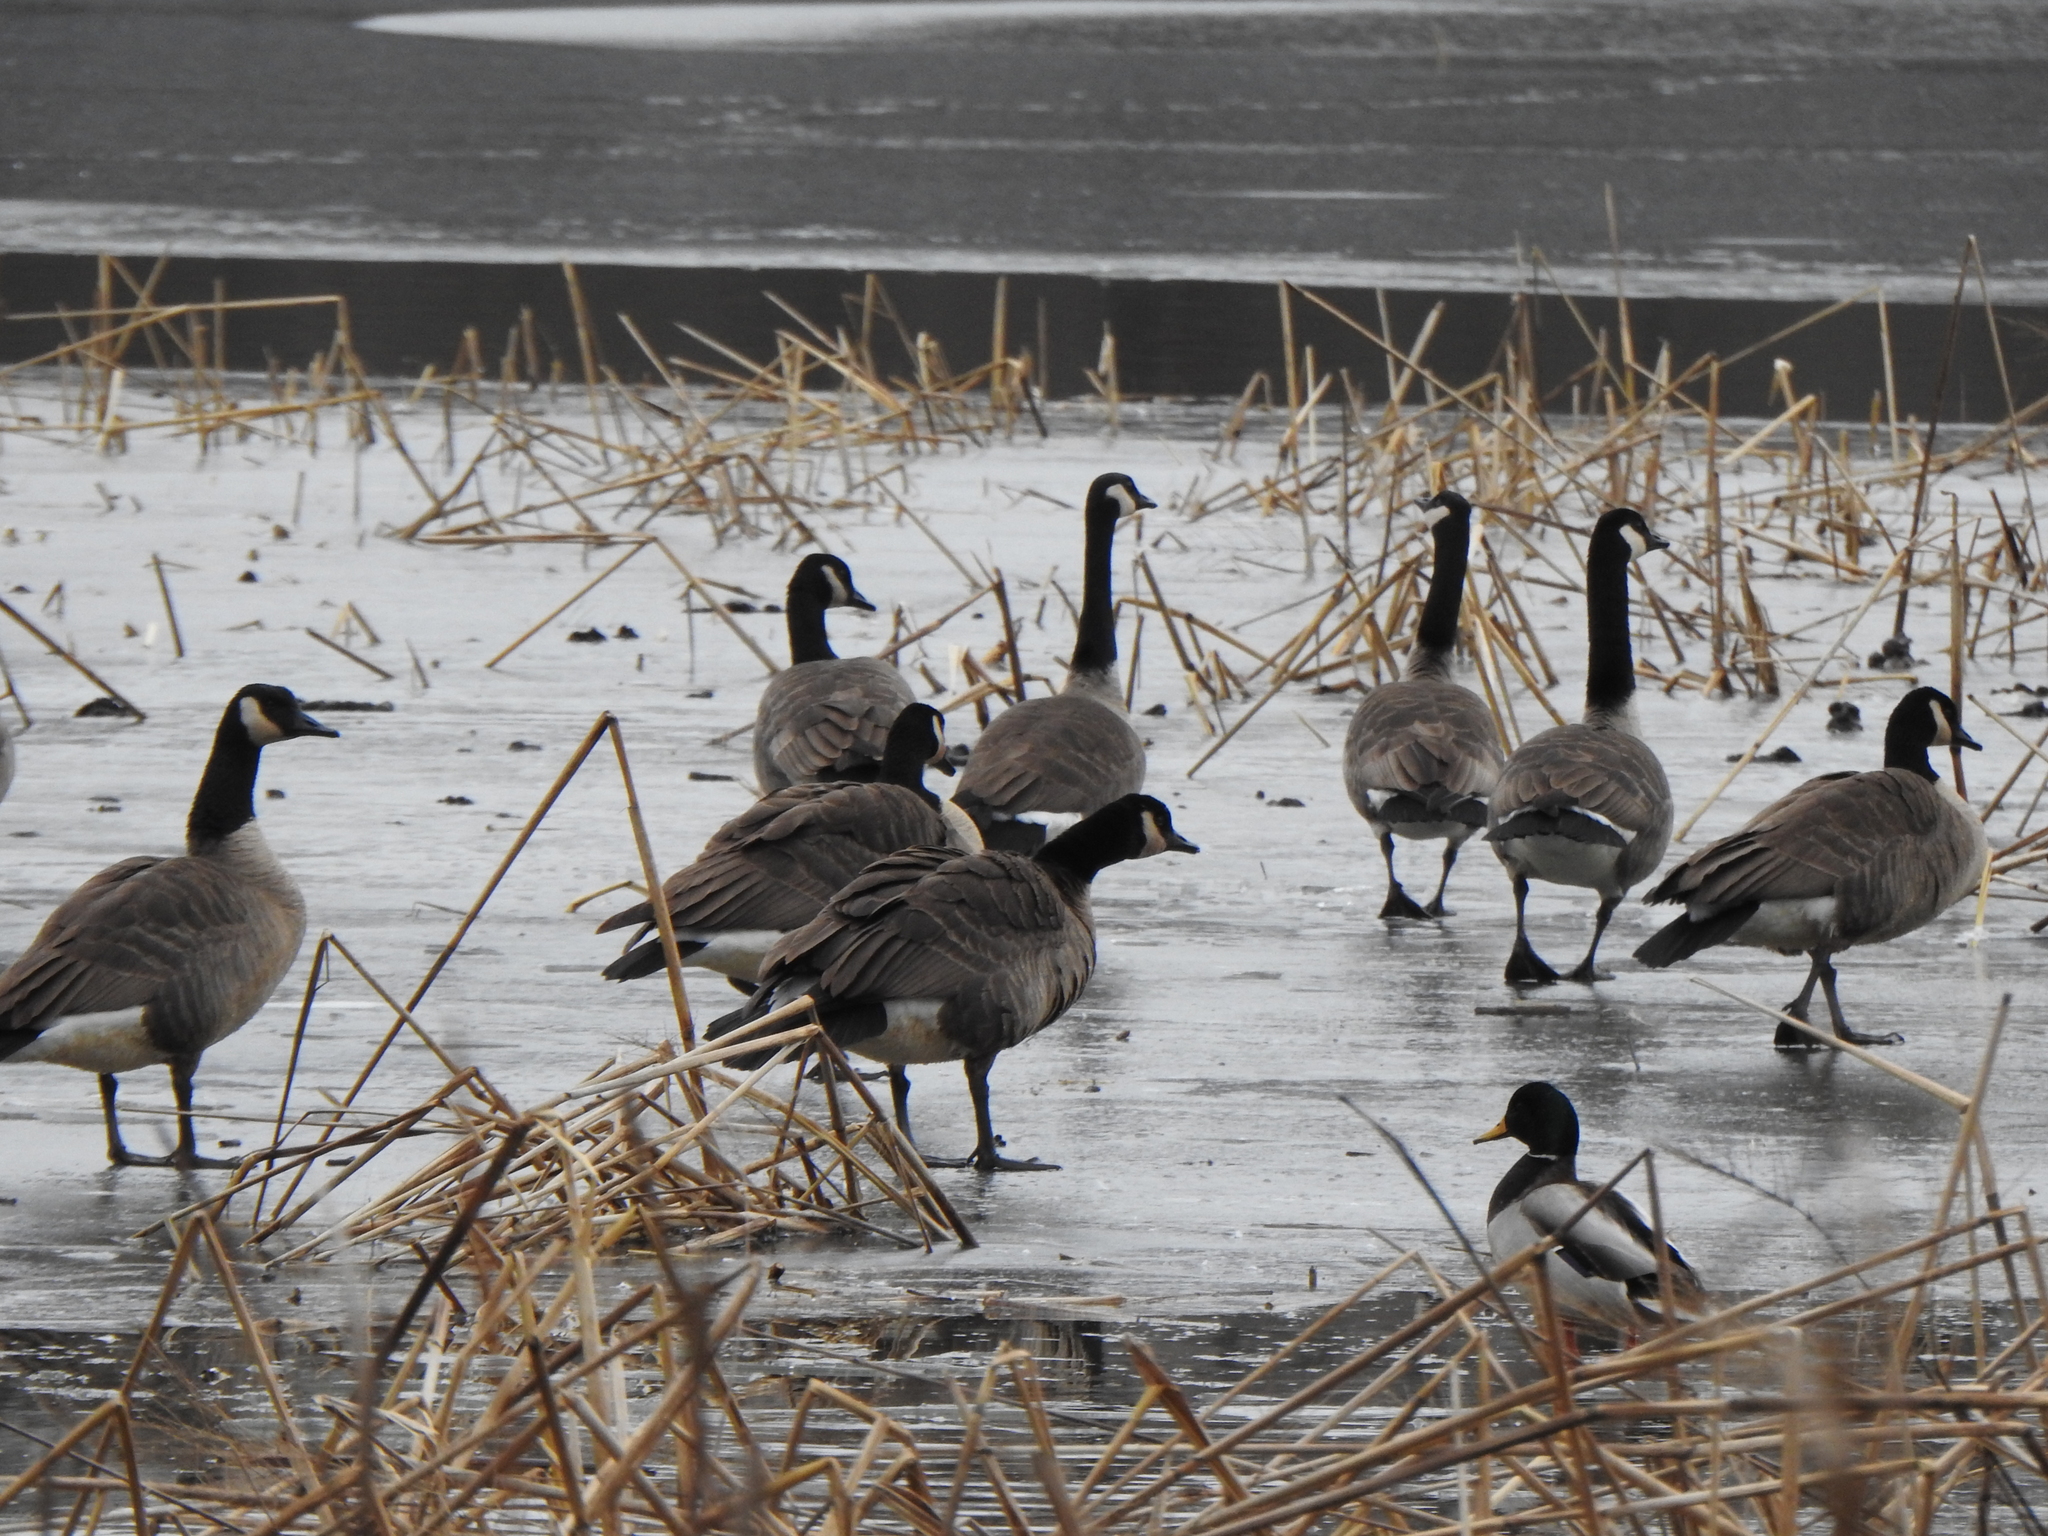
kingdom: Animalia
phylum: Chordata
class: Aves
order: Anseriformes
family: Anatidae
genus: Branta
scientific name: Branta canadensis
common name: Canada goose
